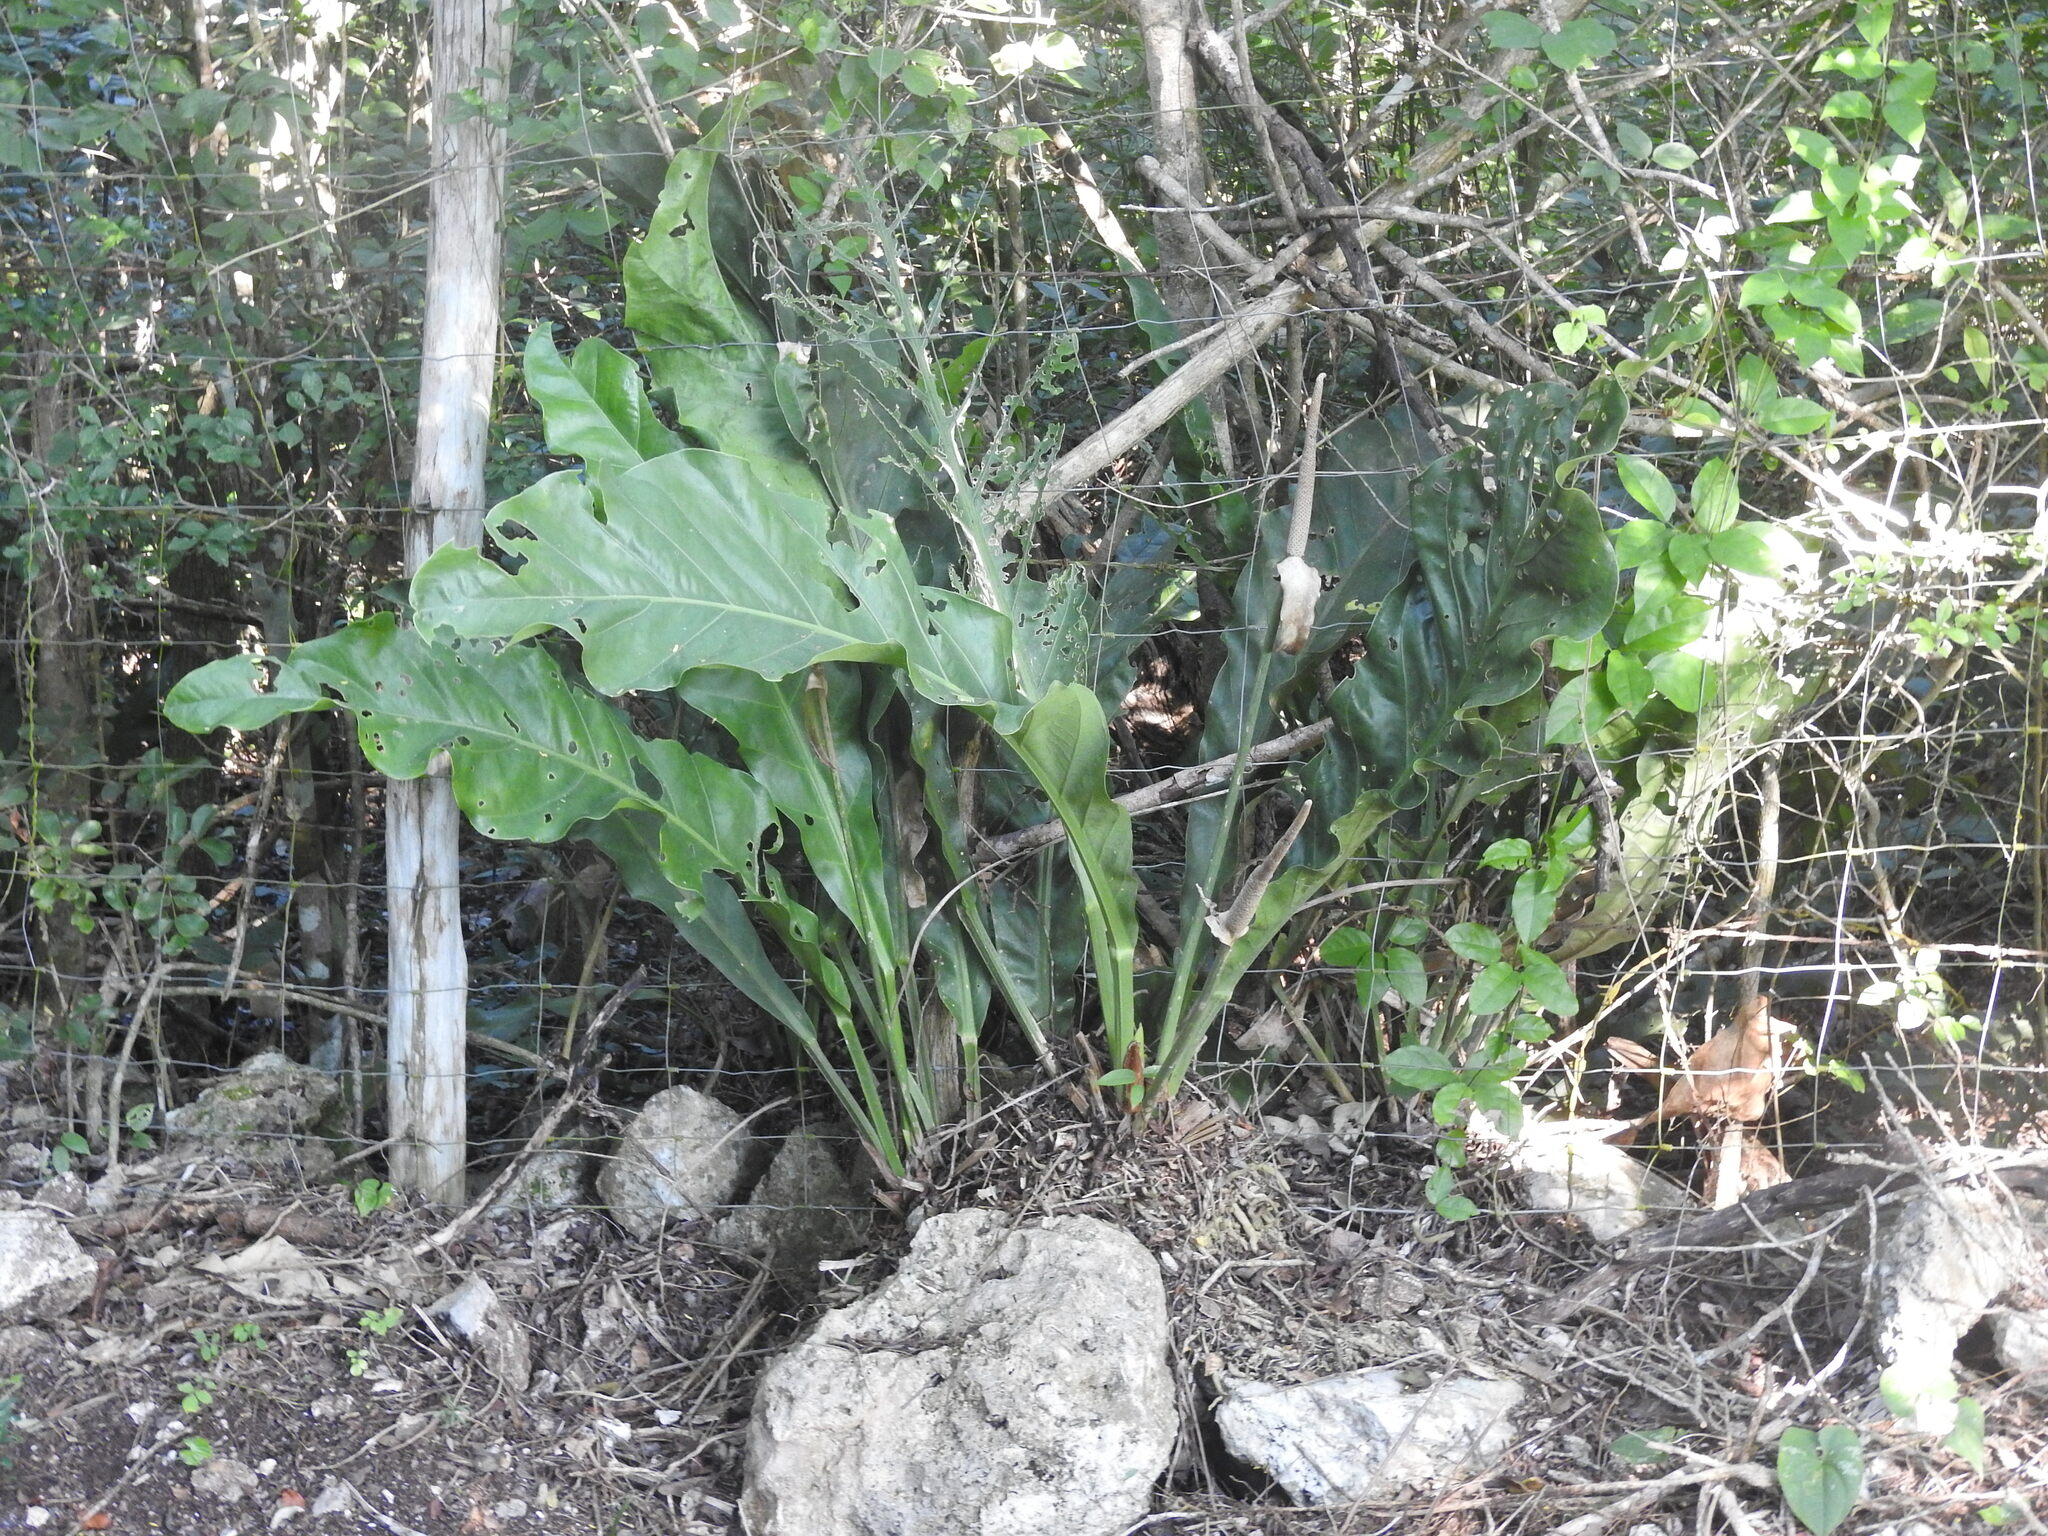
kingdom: Plantae
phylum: Tracheophyta
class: Liliopsida
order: Alismatales
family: Araceae
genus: Anthurium
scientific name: Anthurium schlechtendalii
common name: Laceleaf
